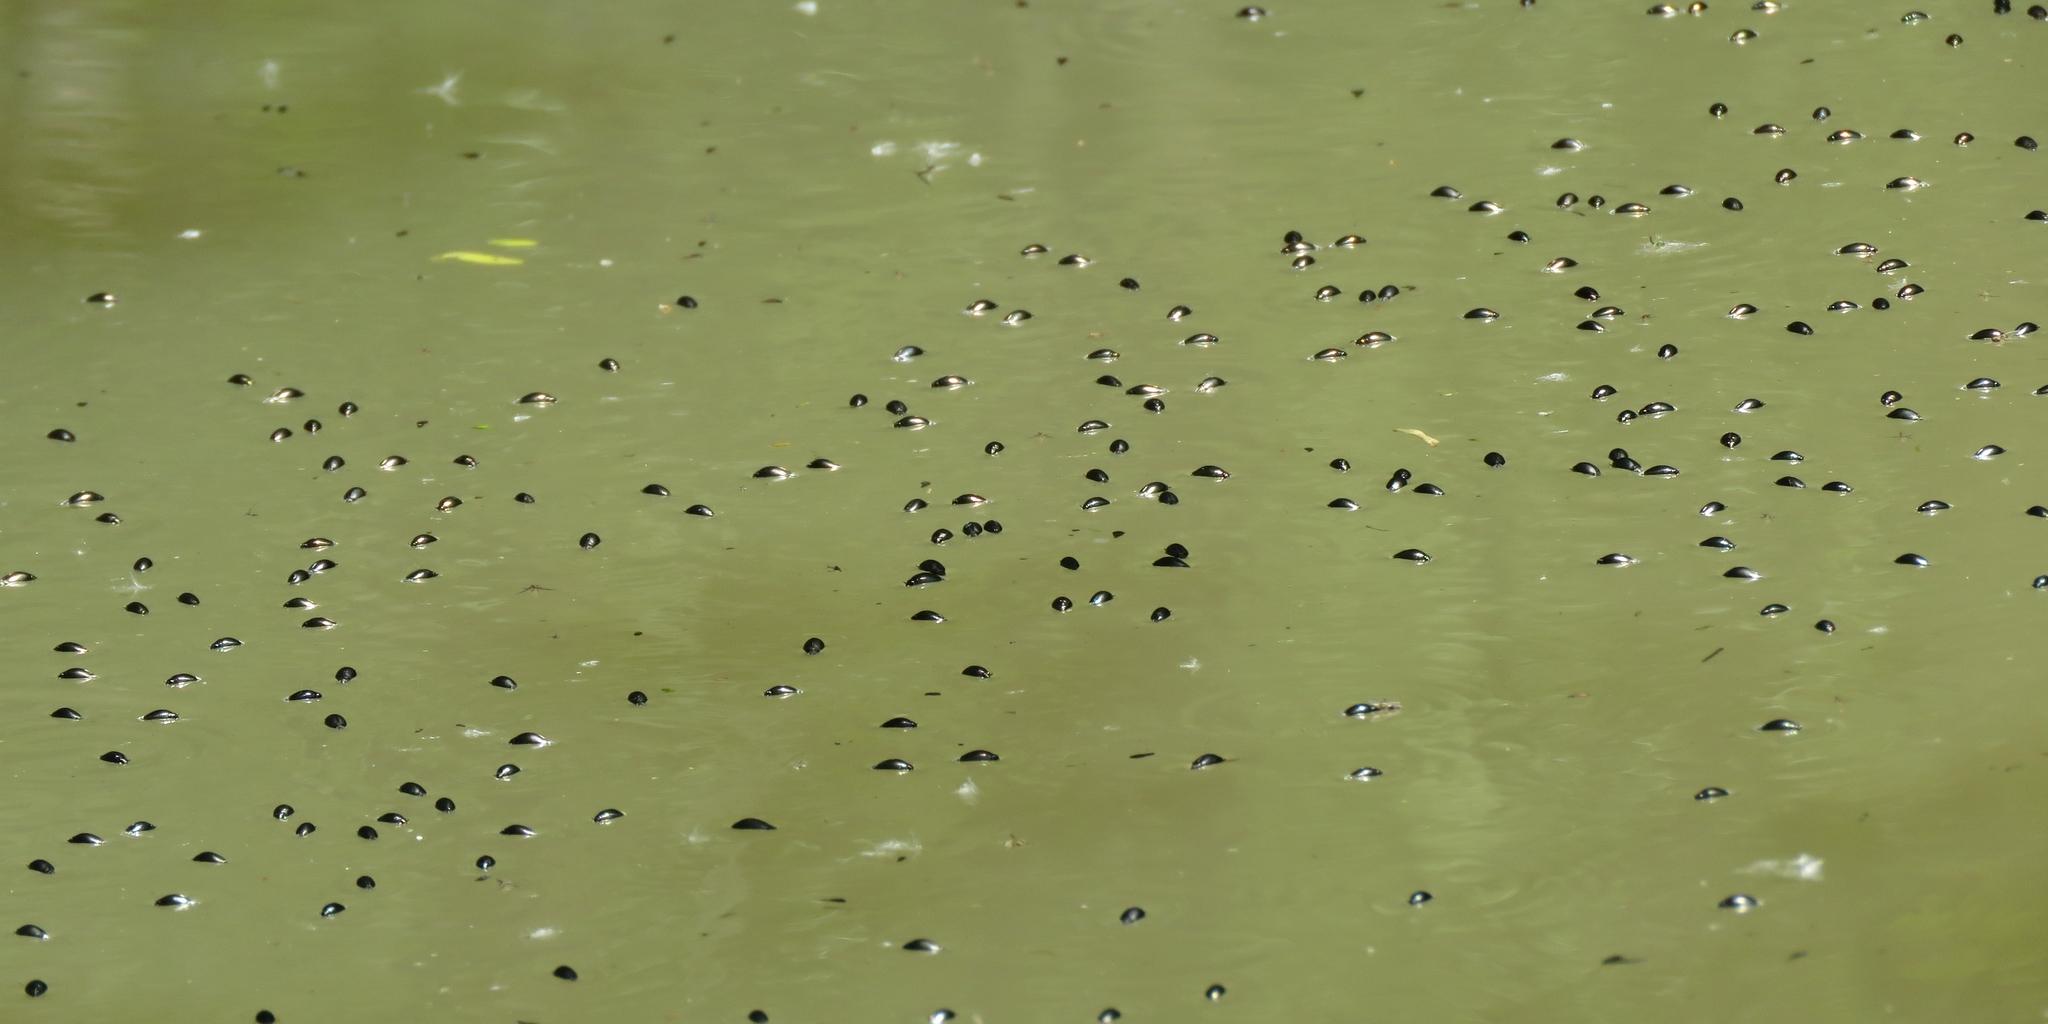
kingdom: Animalia
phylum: Arthropoda
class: Insecta
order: Coleoptera
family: Gyrinidae
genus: Gyrinus
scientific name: Gyrinus
